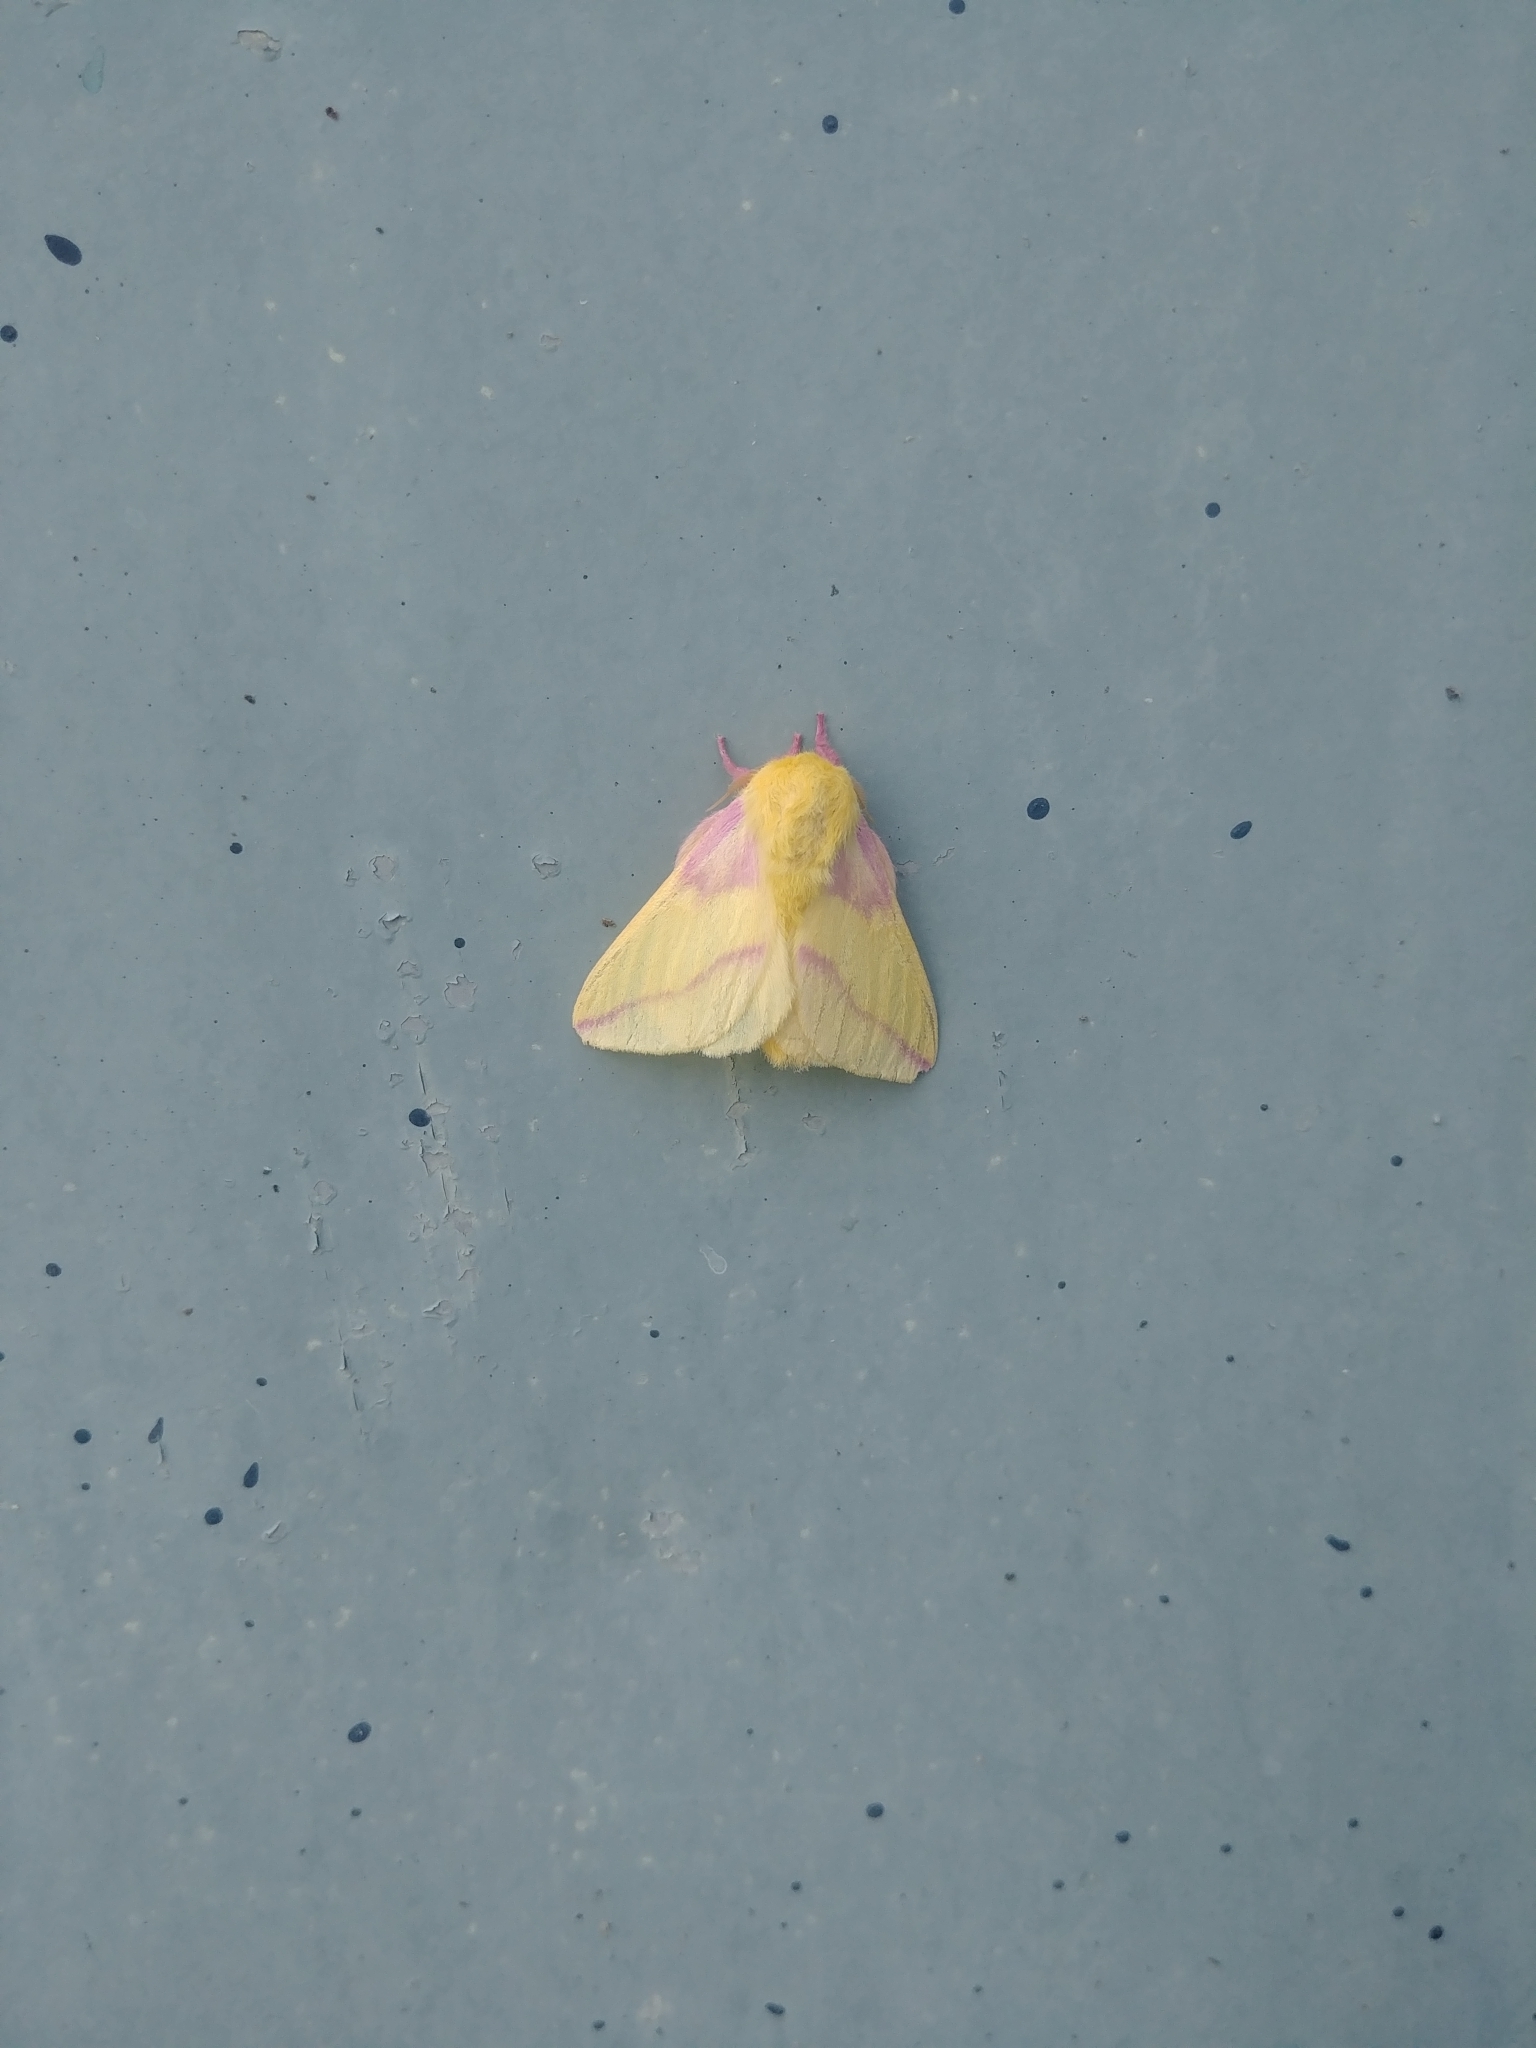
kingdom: Animalia
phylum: Arthropoda
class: Insecta
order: Lepidoptera
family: Saturniidae
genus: Dryocampa
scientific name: Dryocampa rubicunda
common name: Rosy maple moth
